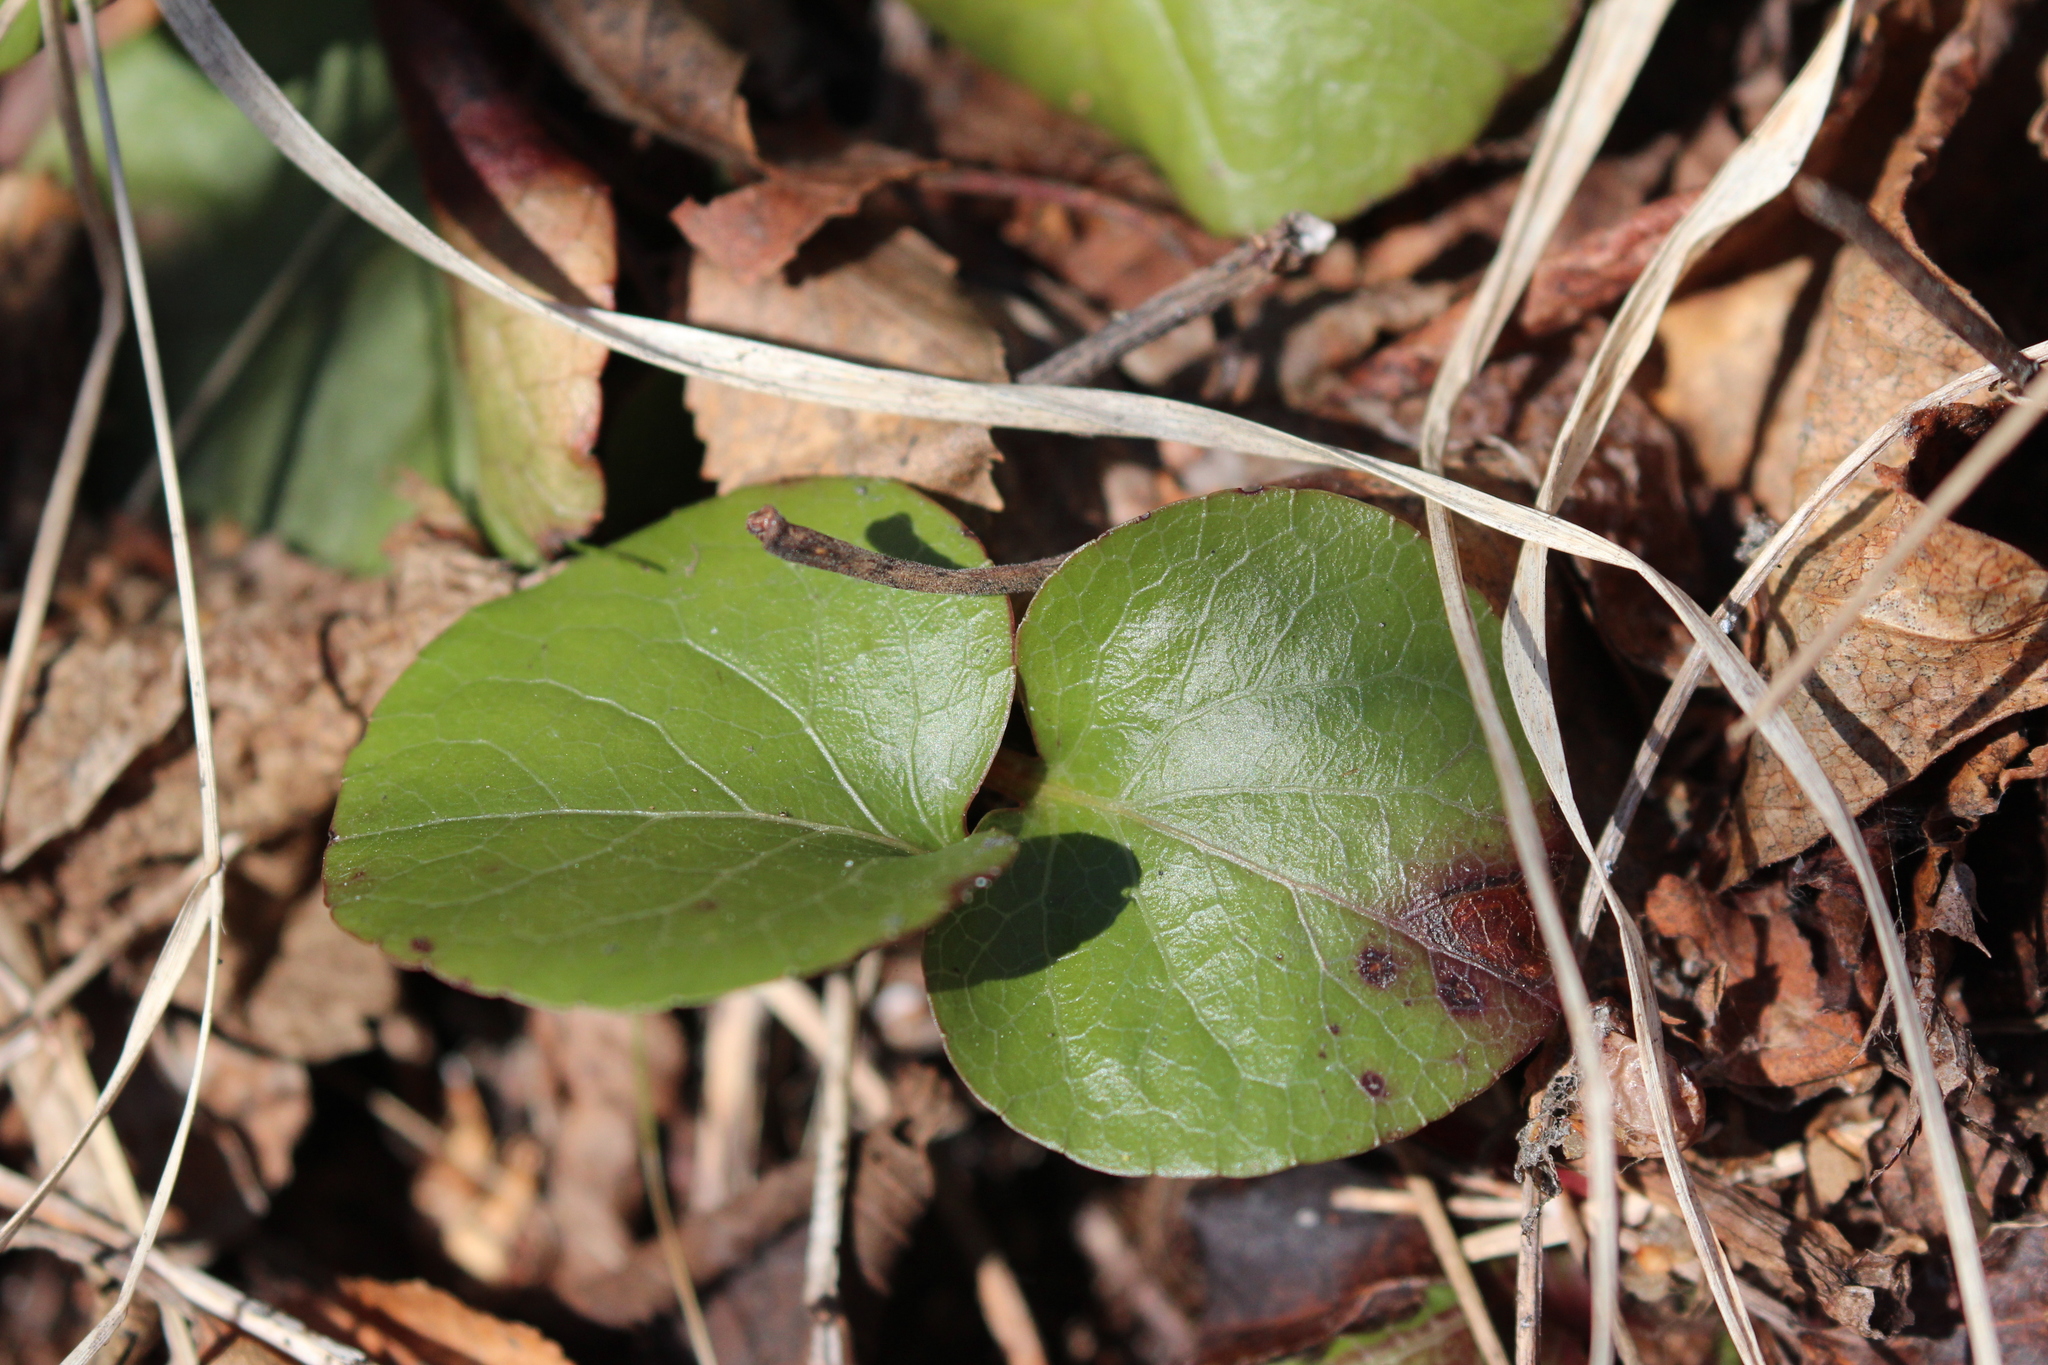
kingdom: Plantae
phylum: Tracheophyta
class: Magnoliopsida
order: Ericales
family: Ericaceae
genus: Pyrola
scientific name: Pyrola asarifolia
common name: Bog wintergreen
